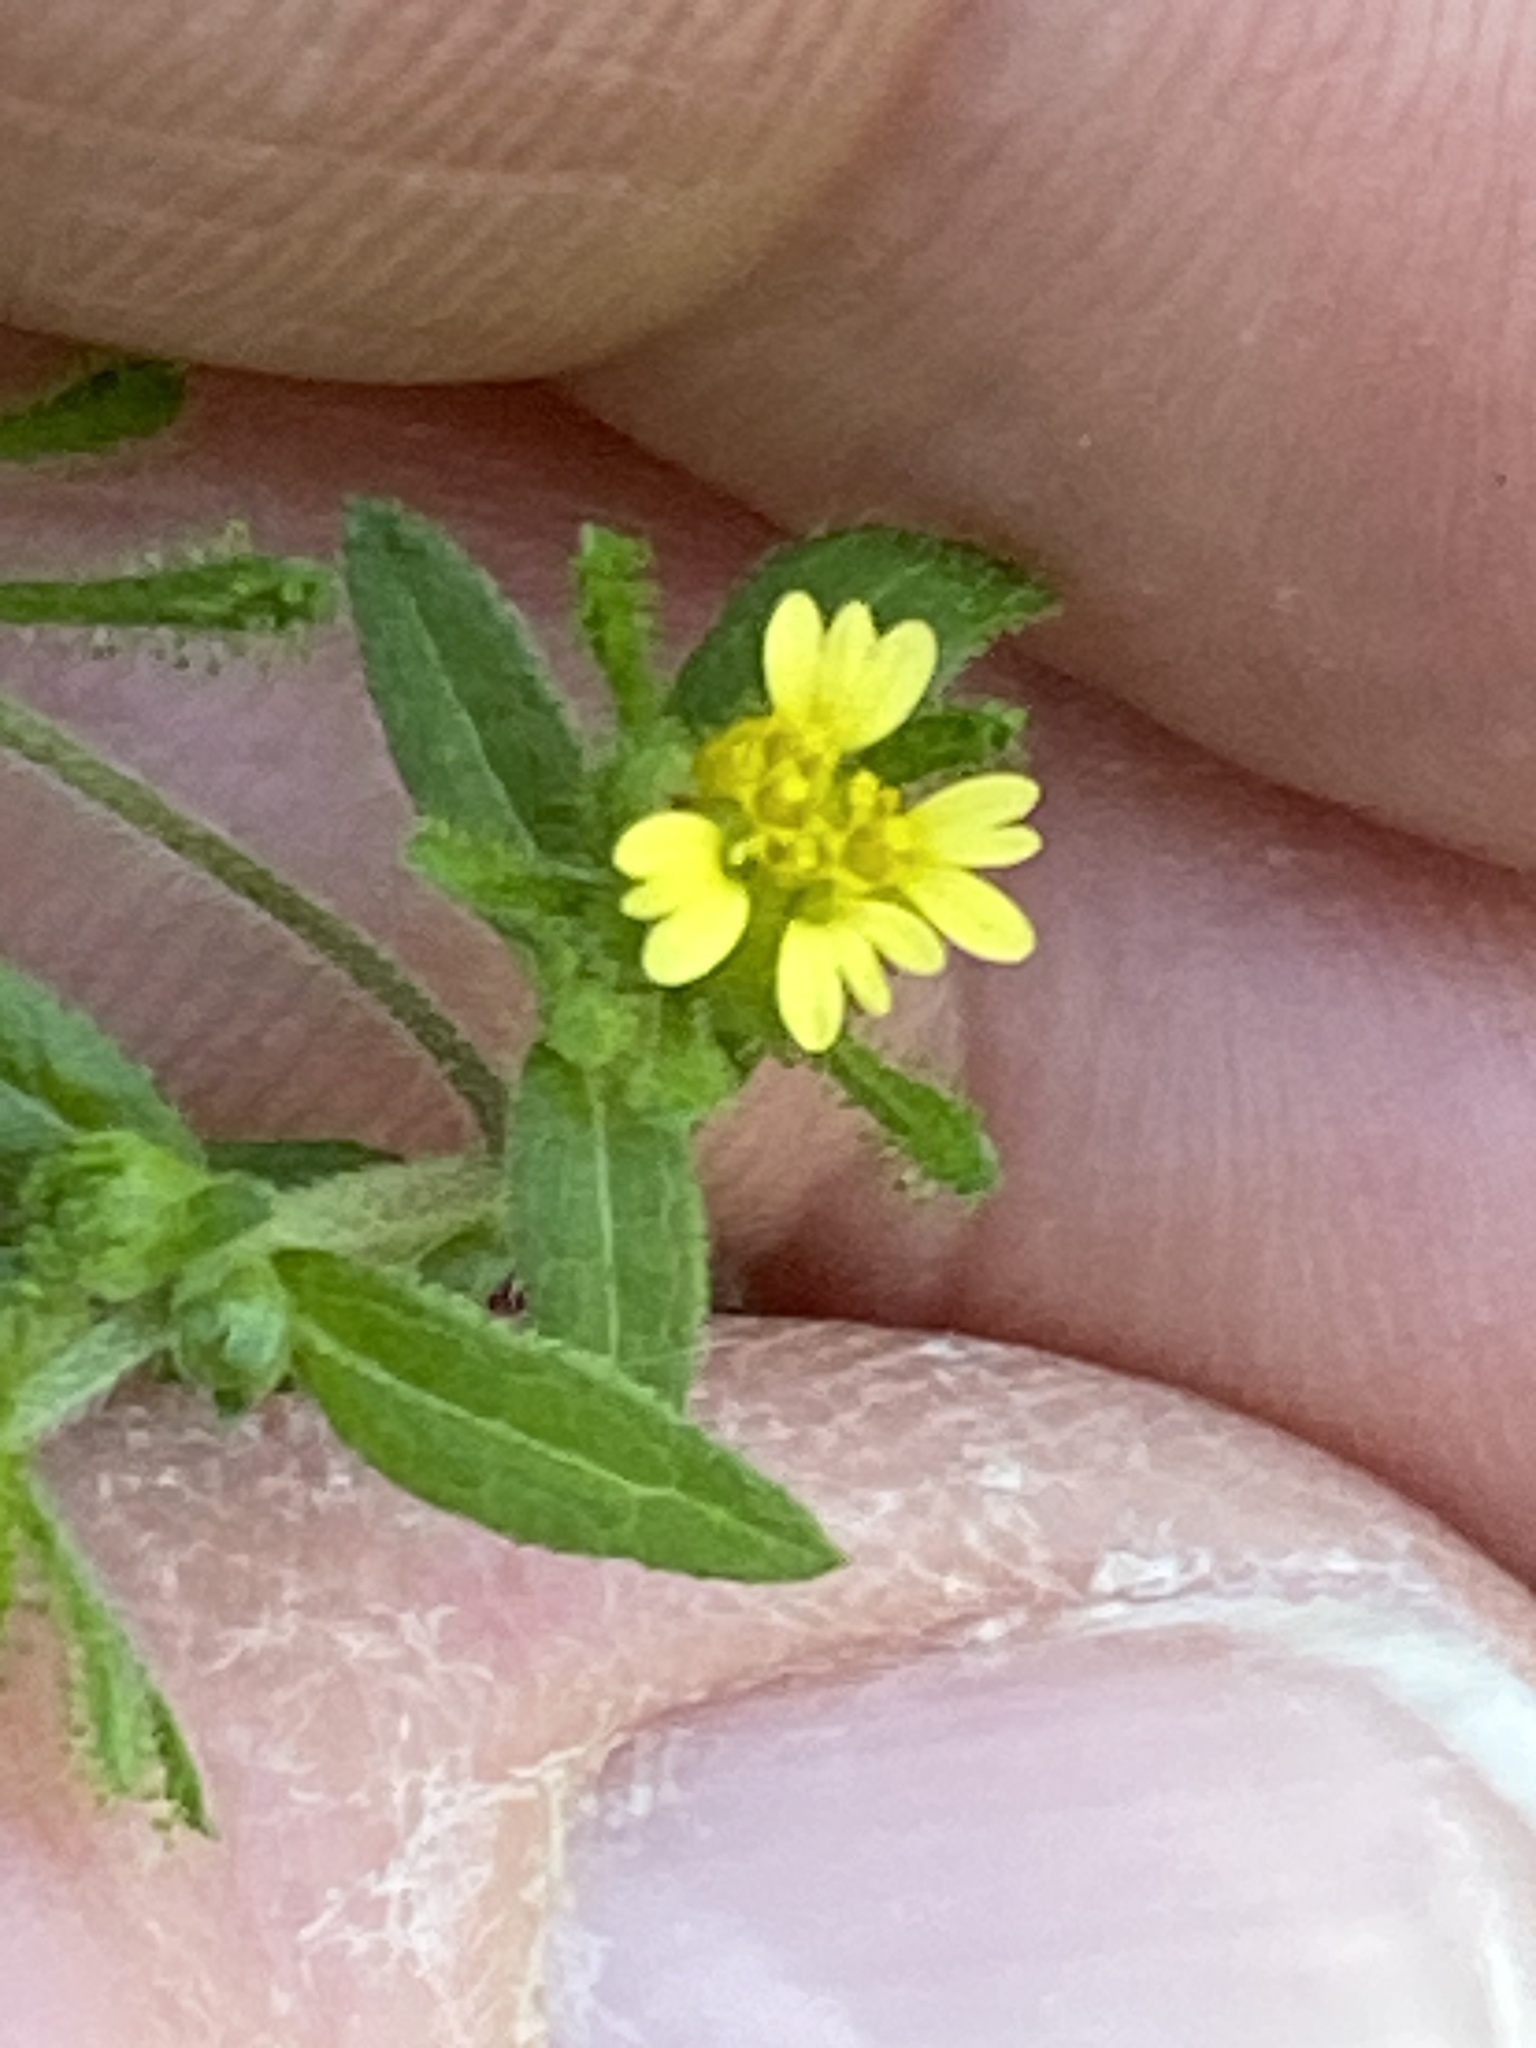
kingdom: Plantae
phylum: Tracheophyta
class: Magnoliopsida
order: Asterales
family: Asteraceae
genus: Sigesbeckia
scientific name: Sigesbeckia orientalis
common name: Eastern st paul's-wort
